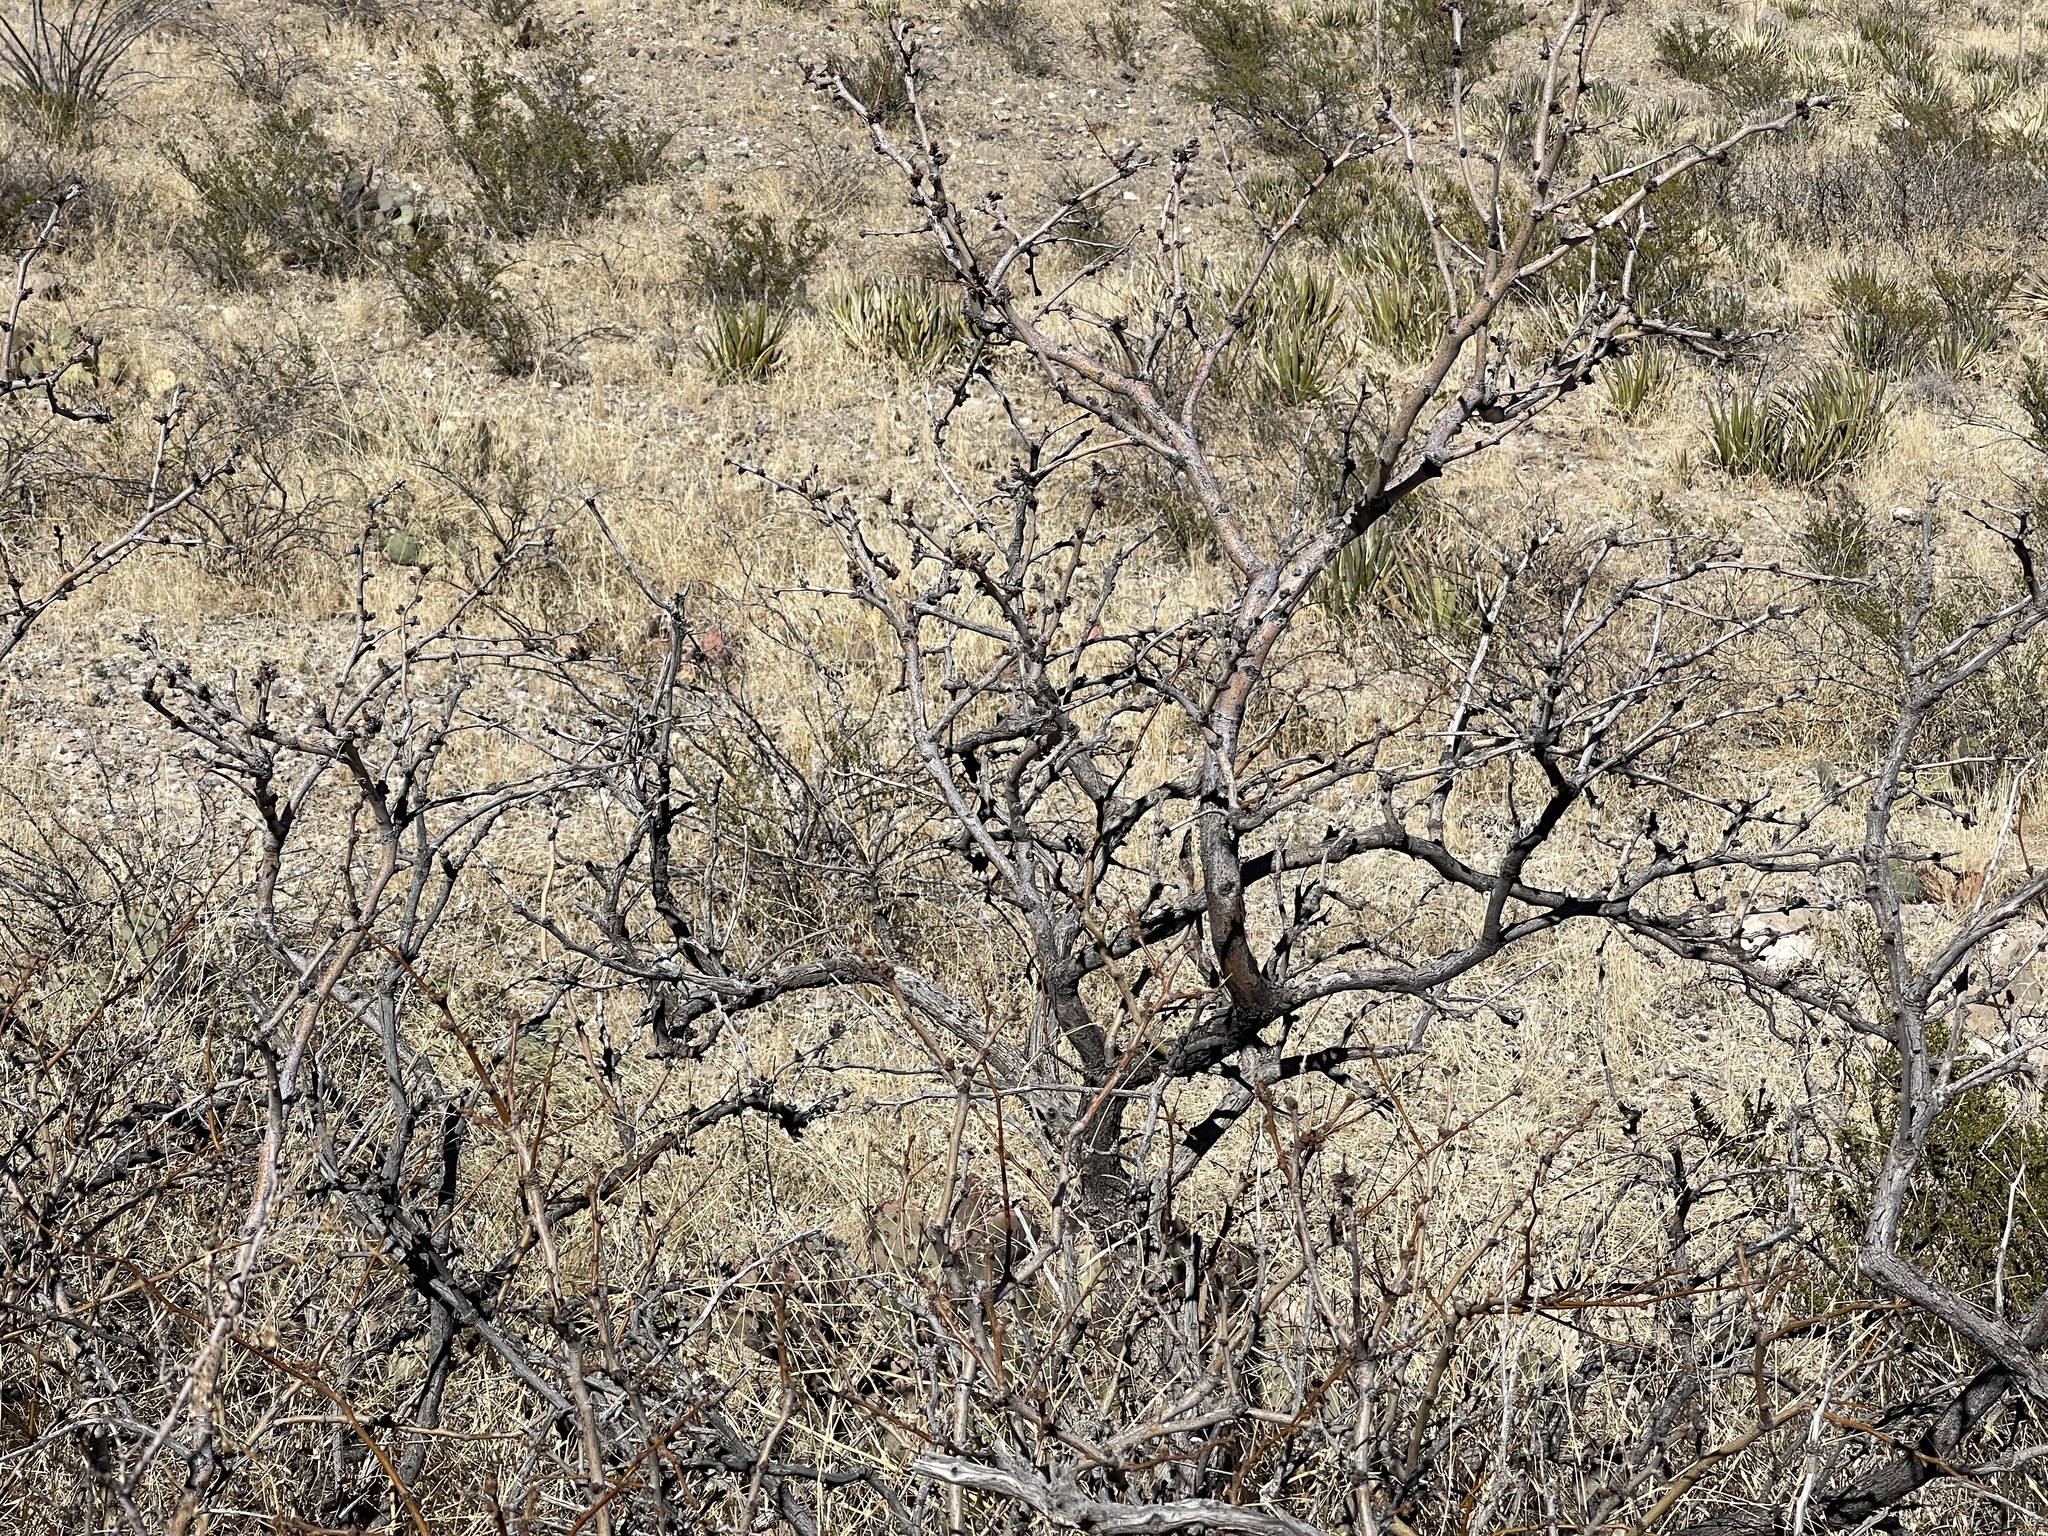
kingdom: Plantae
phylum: Tracheophyta
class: Magnoliopsida
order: Fabales
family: Fabaceae
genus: Prosopis
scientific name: Prosopis glandulosa
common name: Honey mesquite
